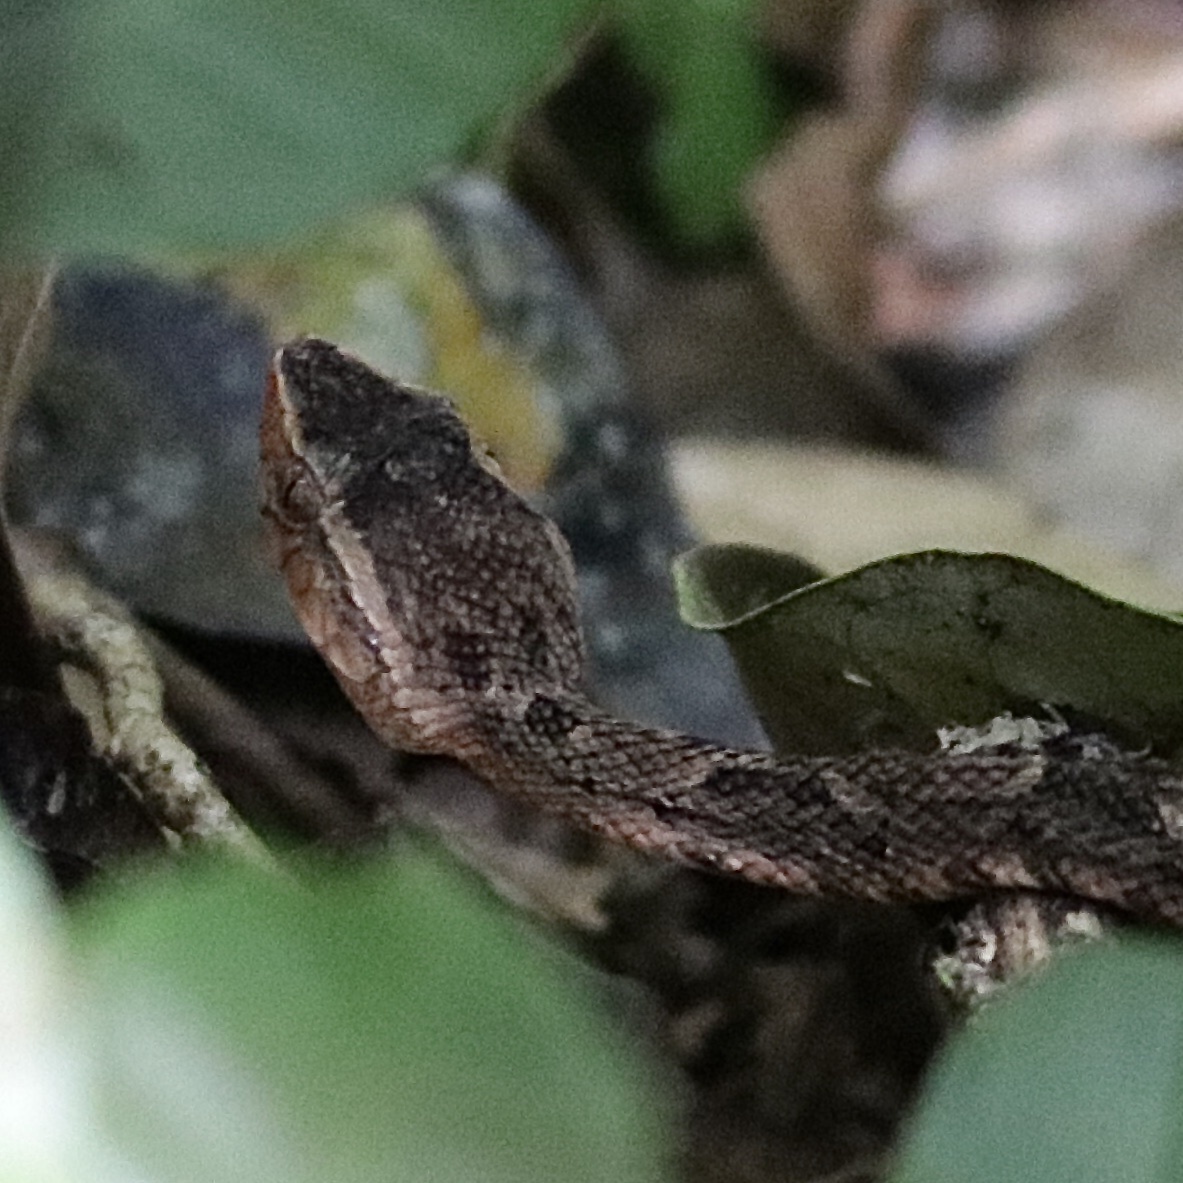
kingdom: Animalia
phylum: Chordata
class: Squamata
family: Viperidae
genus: Bothrops
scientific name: Bothrops asper
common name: Terciopelo
